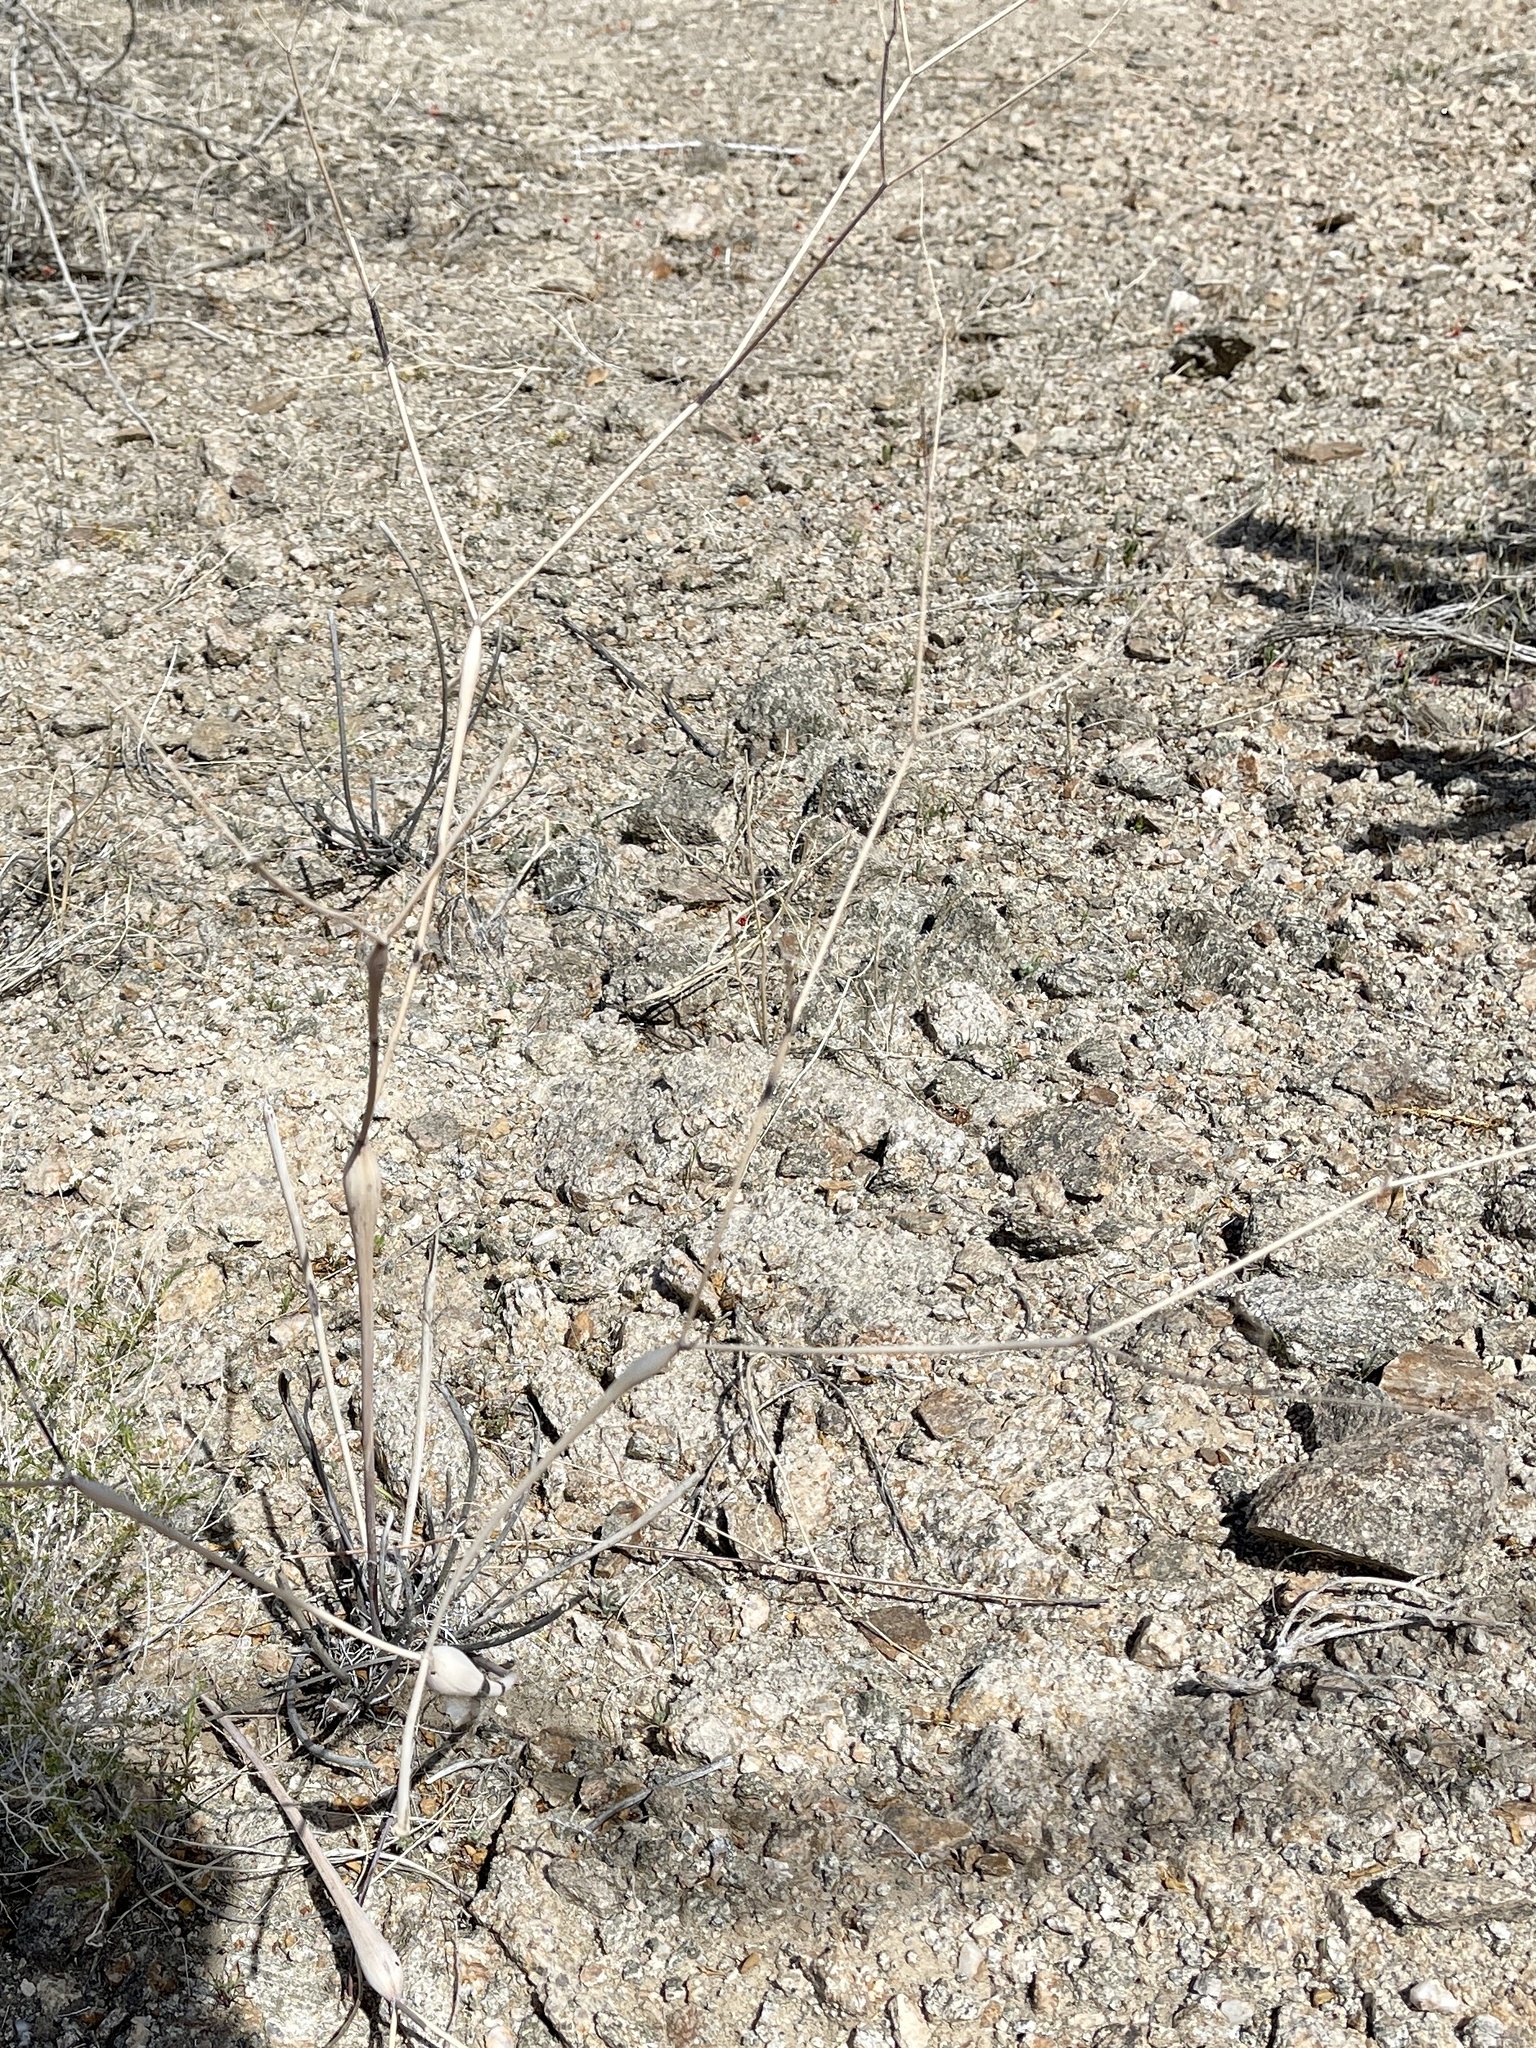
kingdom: Plantae
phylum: Tracheophyta
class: Magnoliopsida
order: Caryophyllales
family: Polygonaceae
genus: Eriogonum
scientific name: Eriogonum inflatum
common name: Desert trumpet
